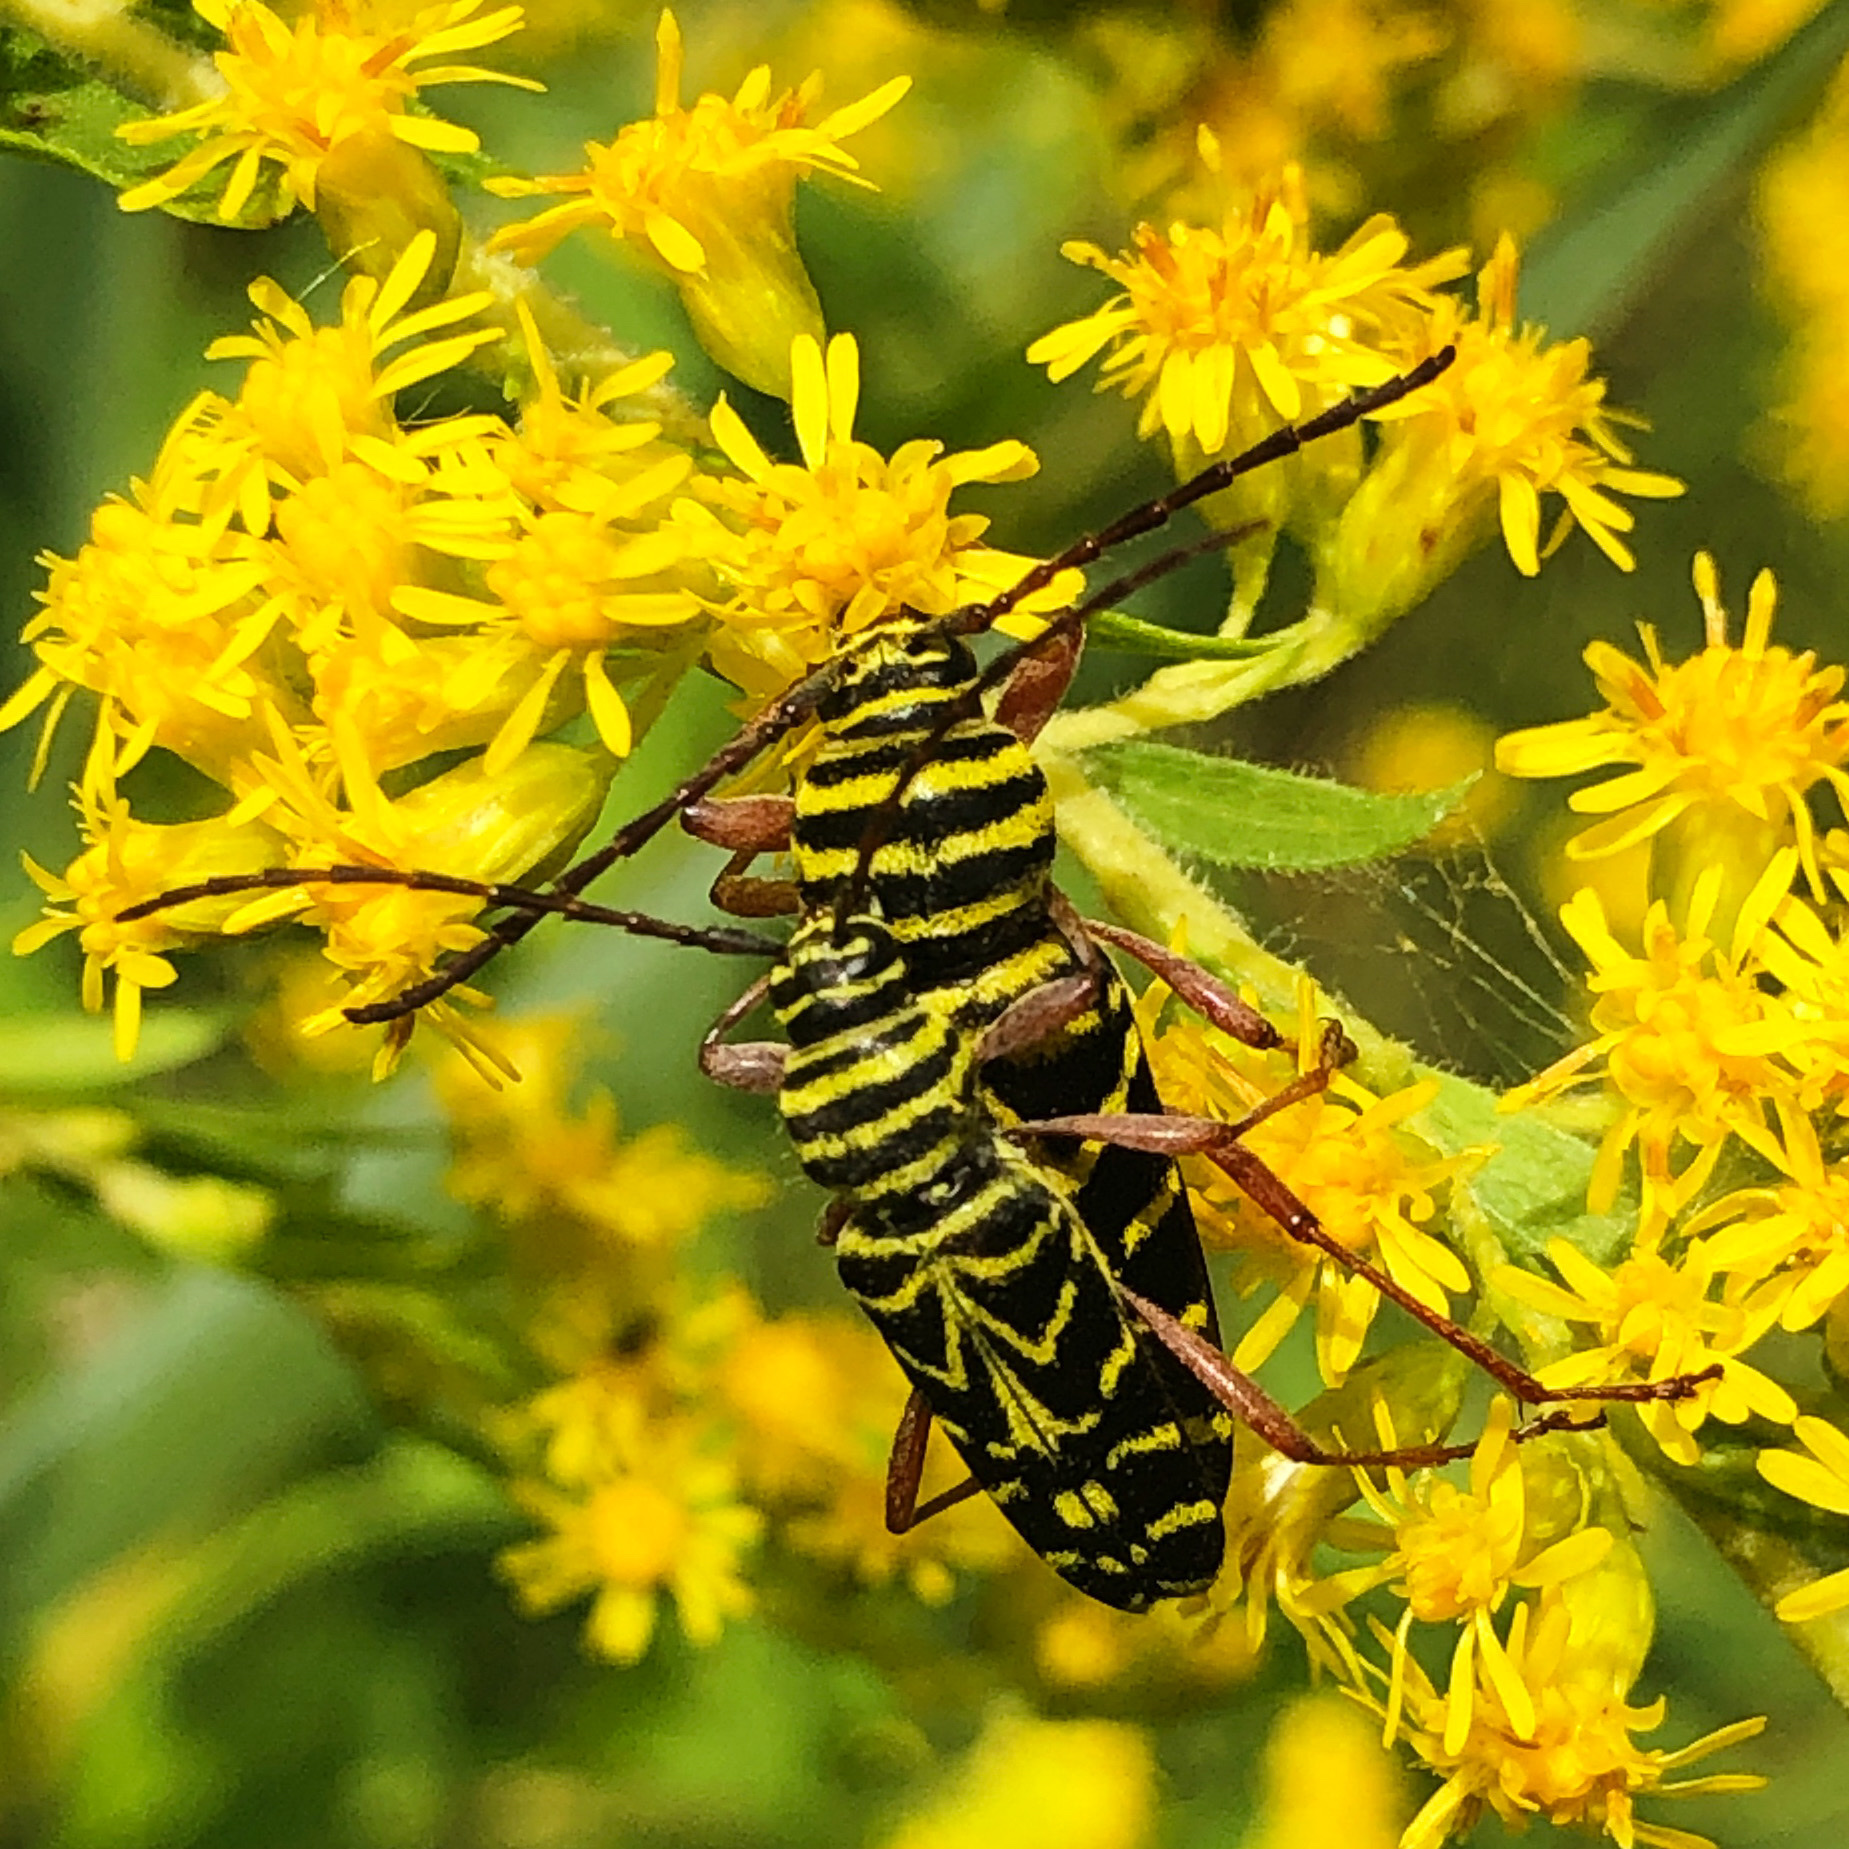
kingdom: Animalia
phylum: Arthropoda
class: Insecta
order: Coleoptera
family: Cerambycidae
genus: Megacyllene
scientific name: Megacyllene robiniae
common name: Locust borer
